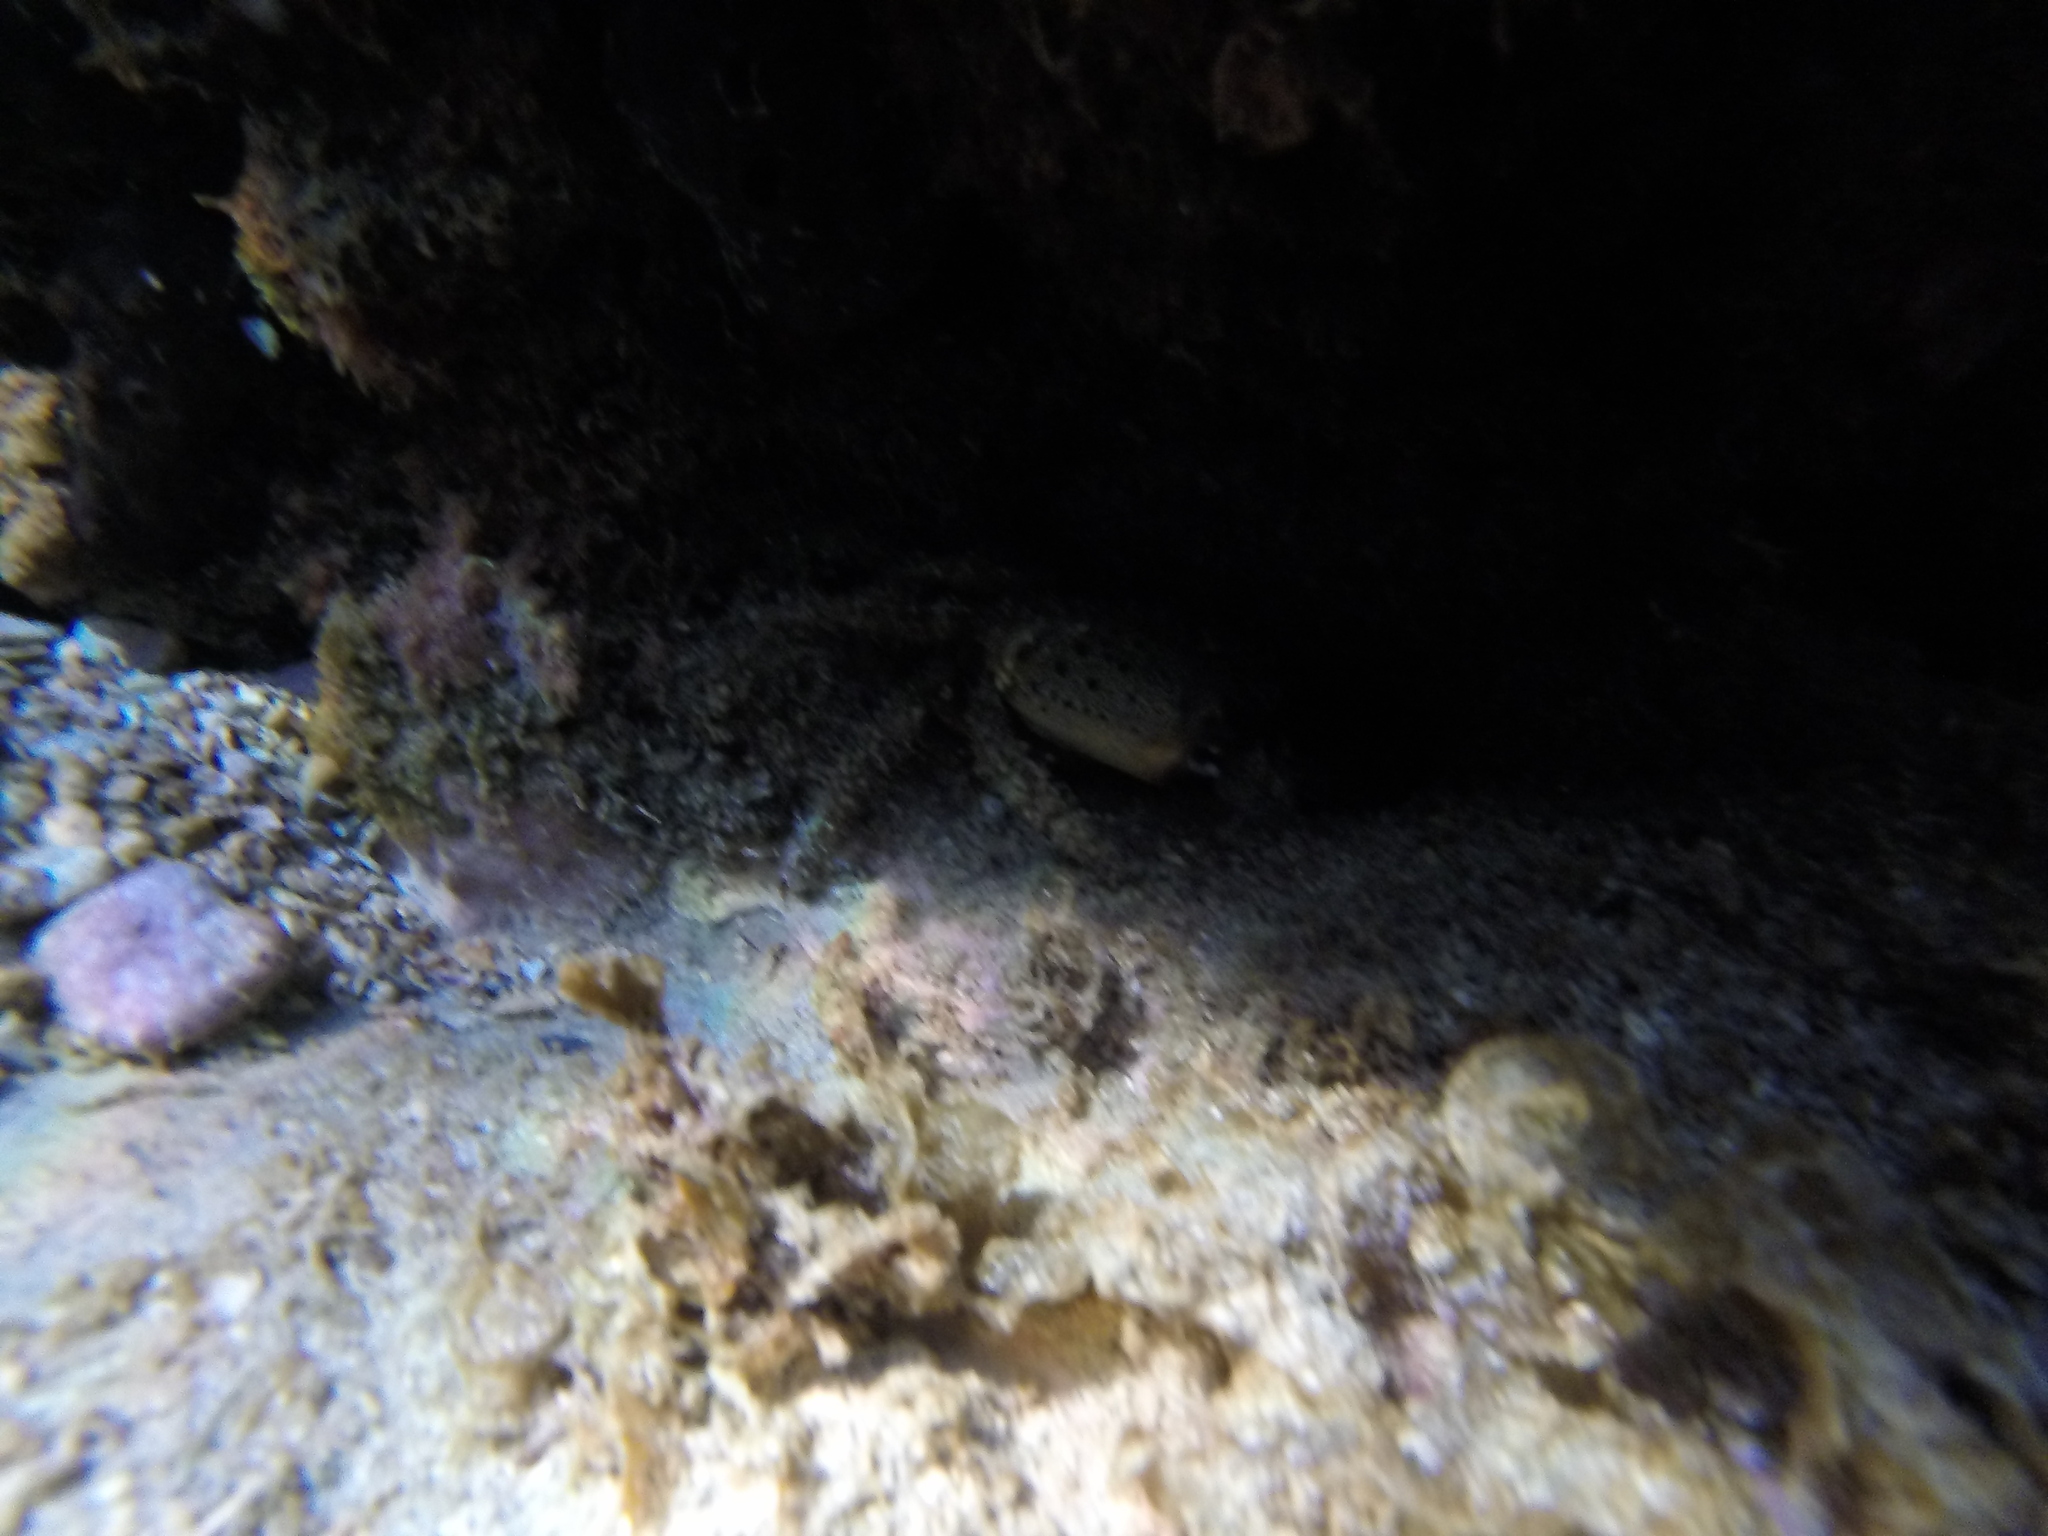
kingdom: Animalia
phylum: Arthropoda
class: Malacostraca
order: Decapoda
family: Eriphiidae
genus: Eriphia
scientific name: Eriphia verrucosa
